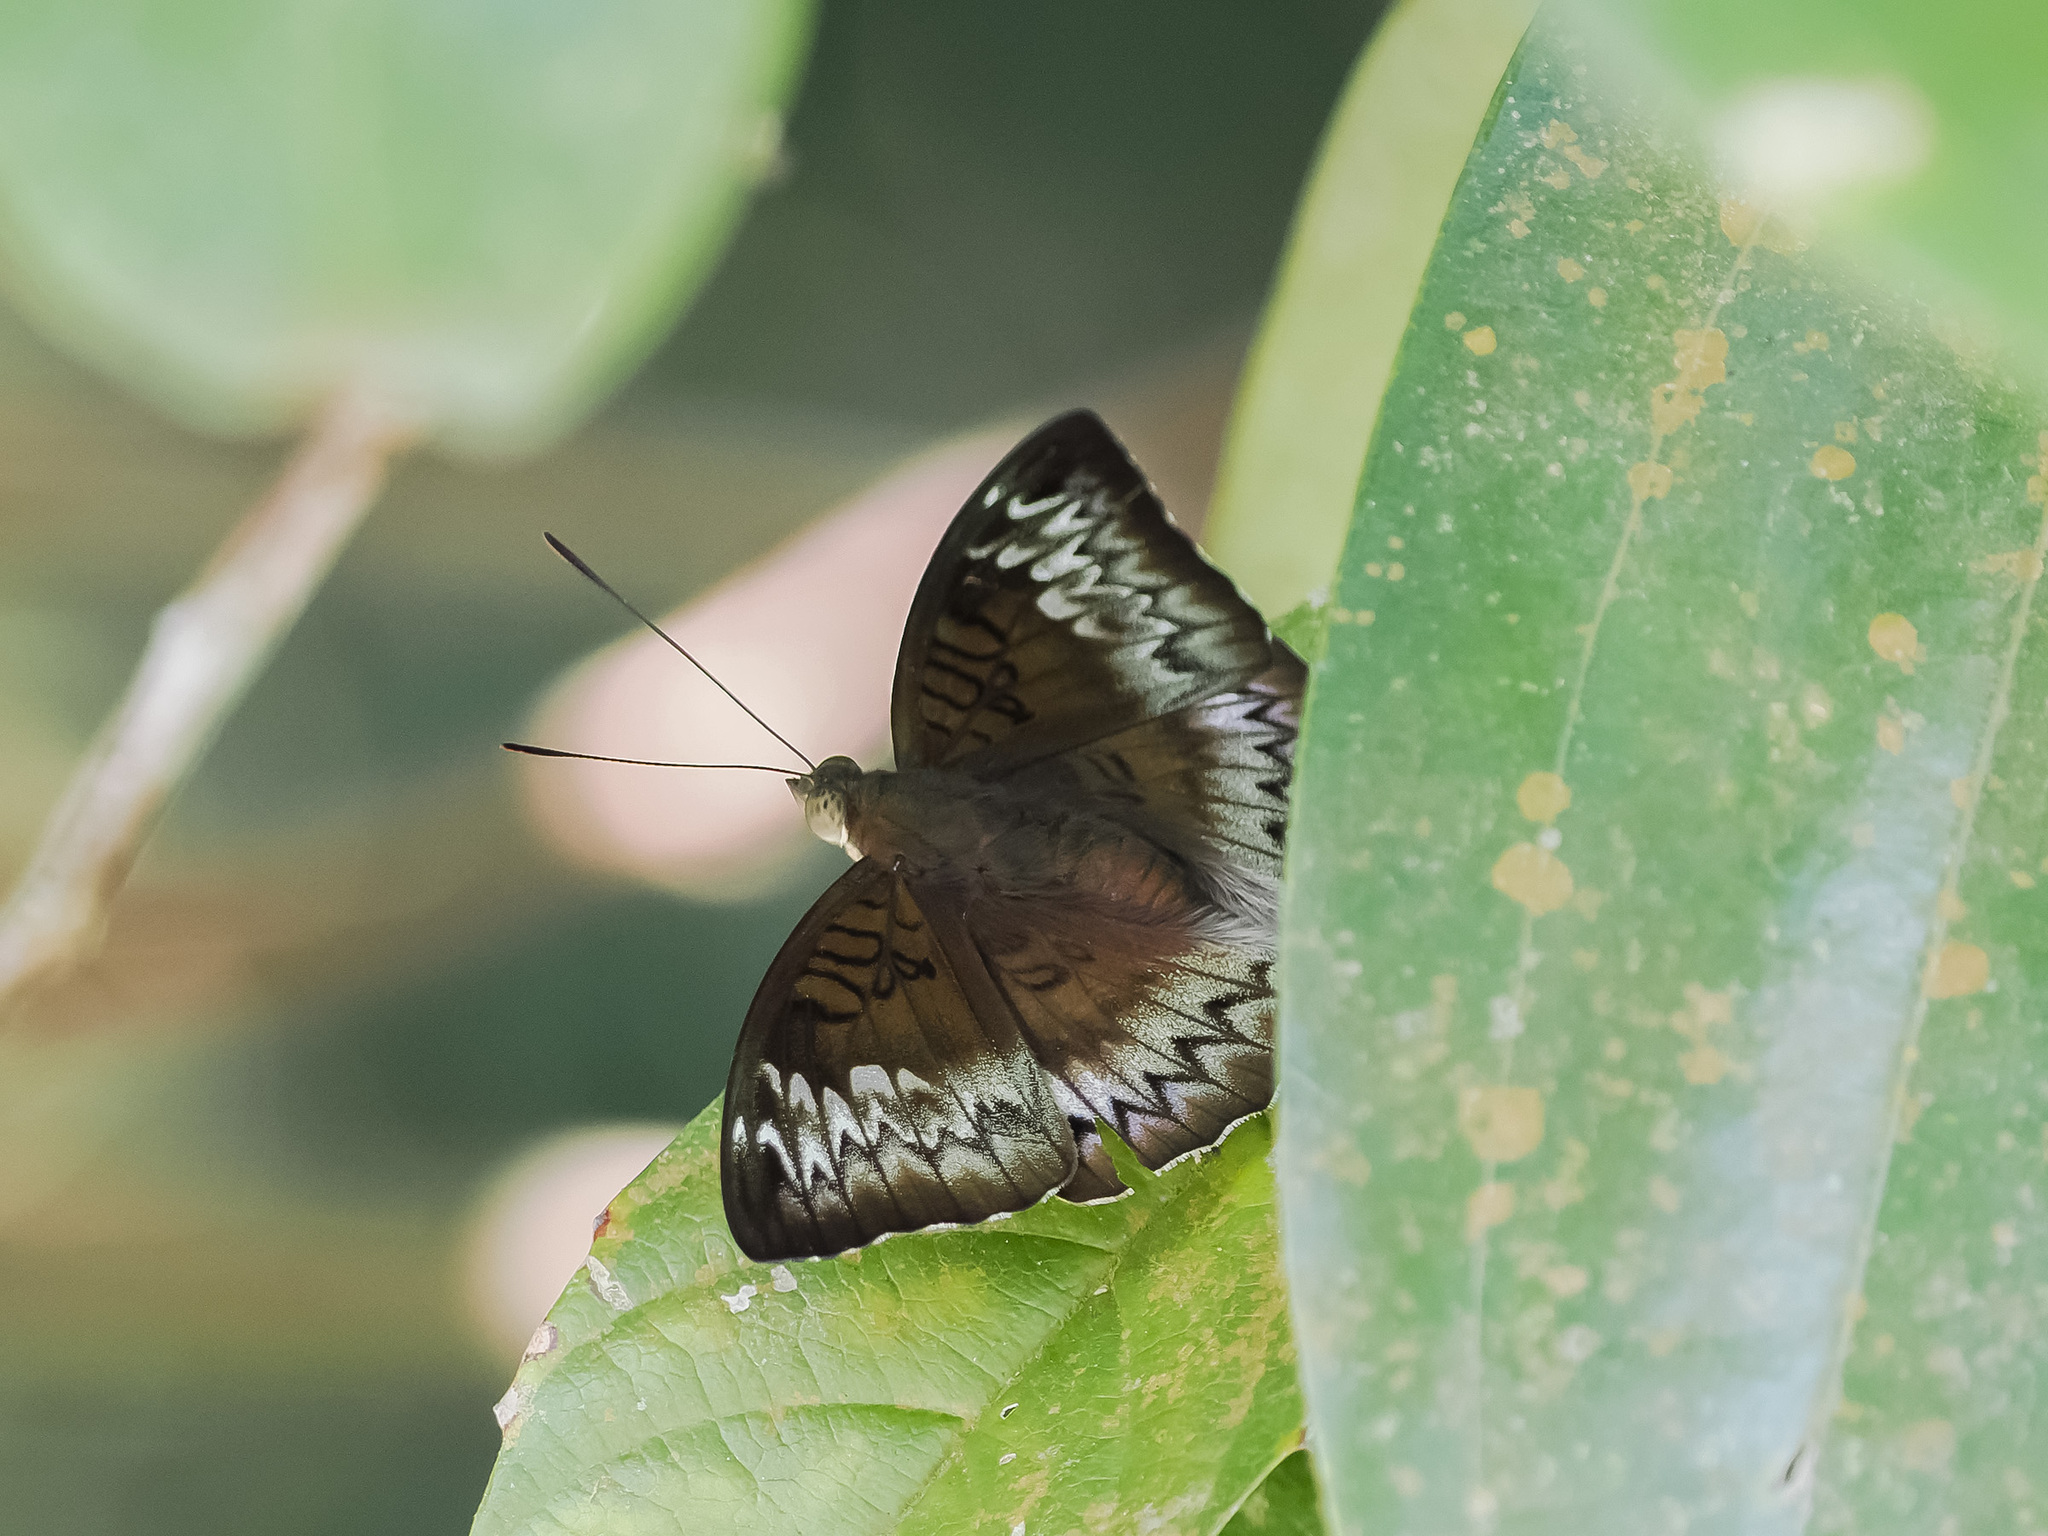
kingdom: Animalia
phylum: Arthropoda
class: Insecta
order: Lepidoptera
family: Nymphalidae
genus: Euthalia
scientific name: Euthalia monina
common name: Powdered baron
